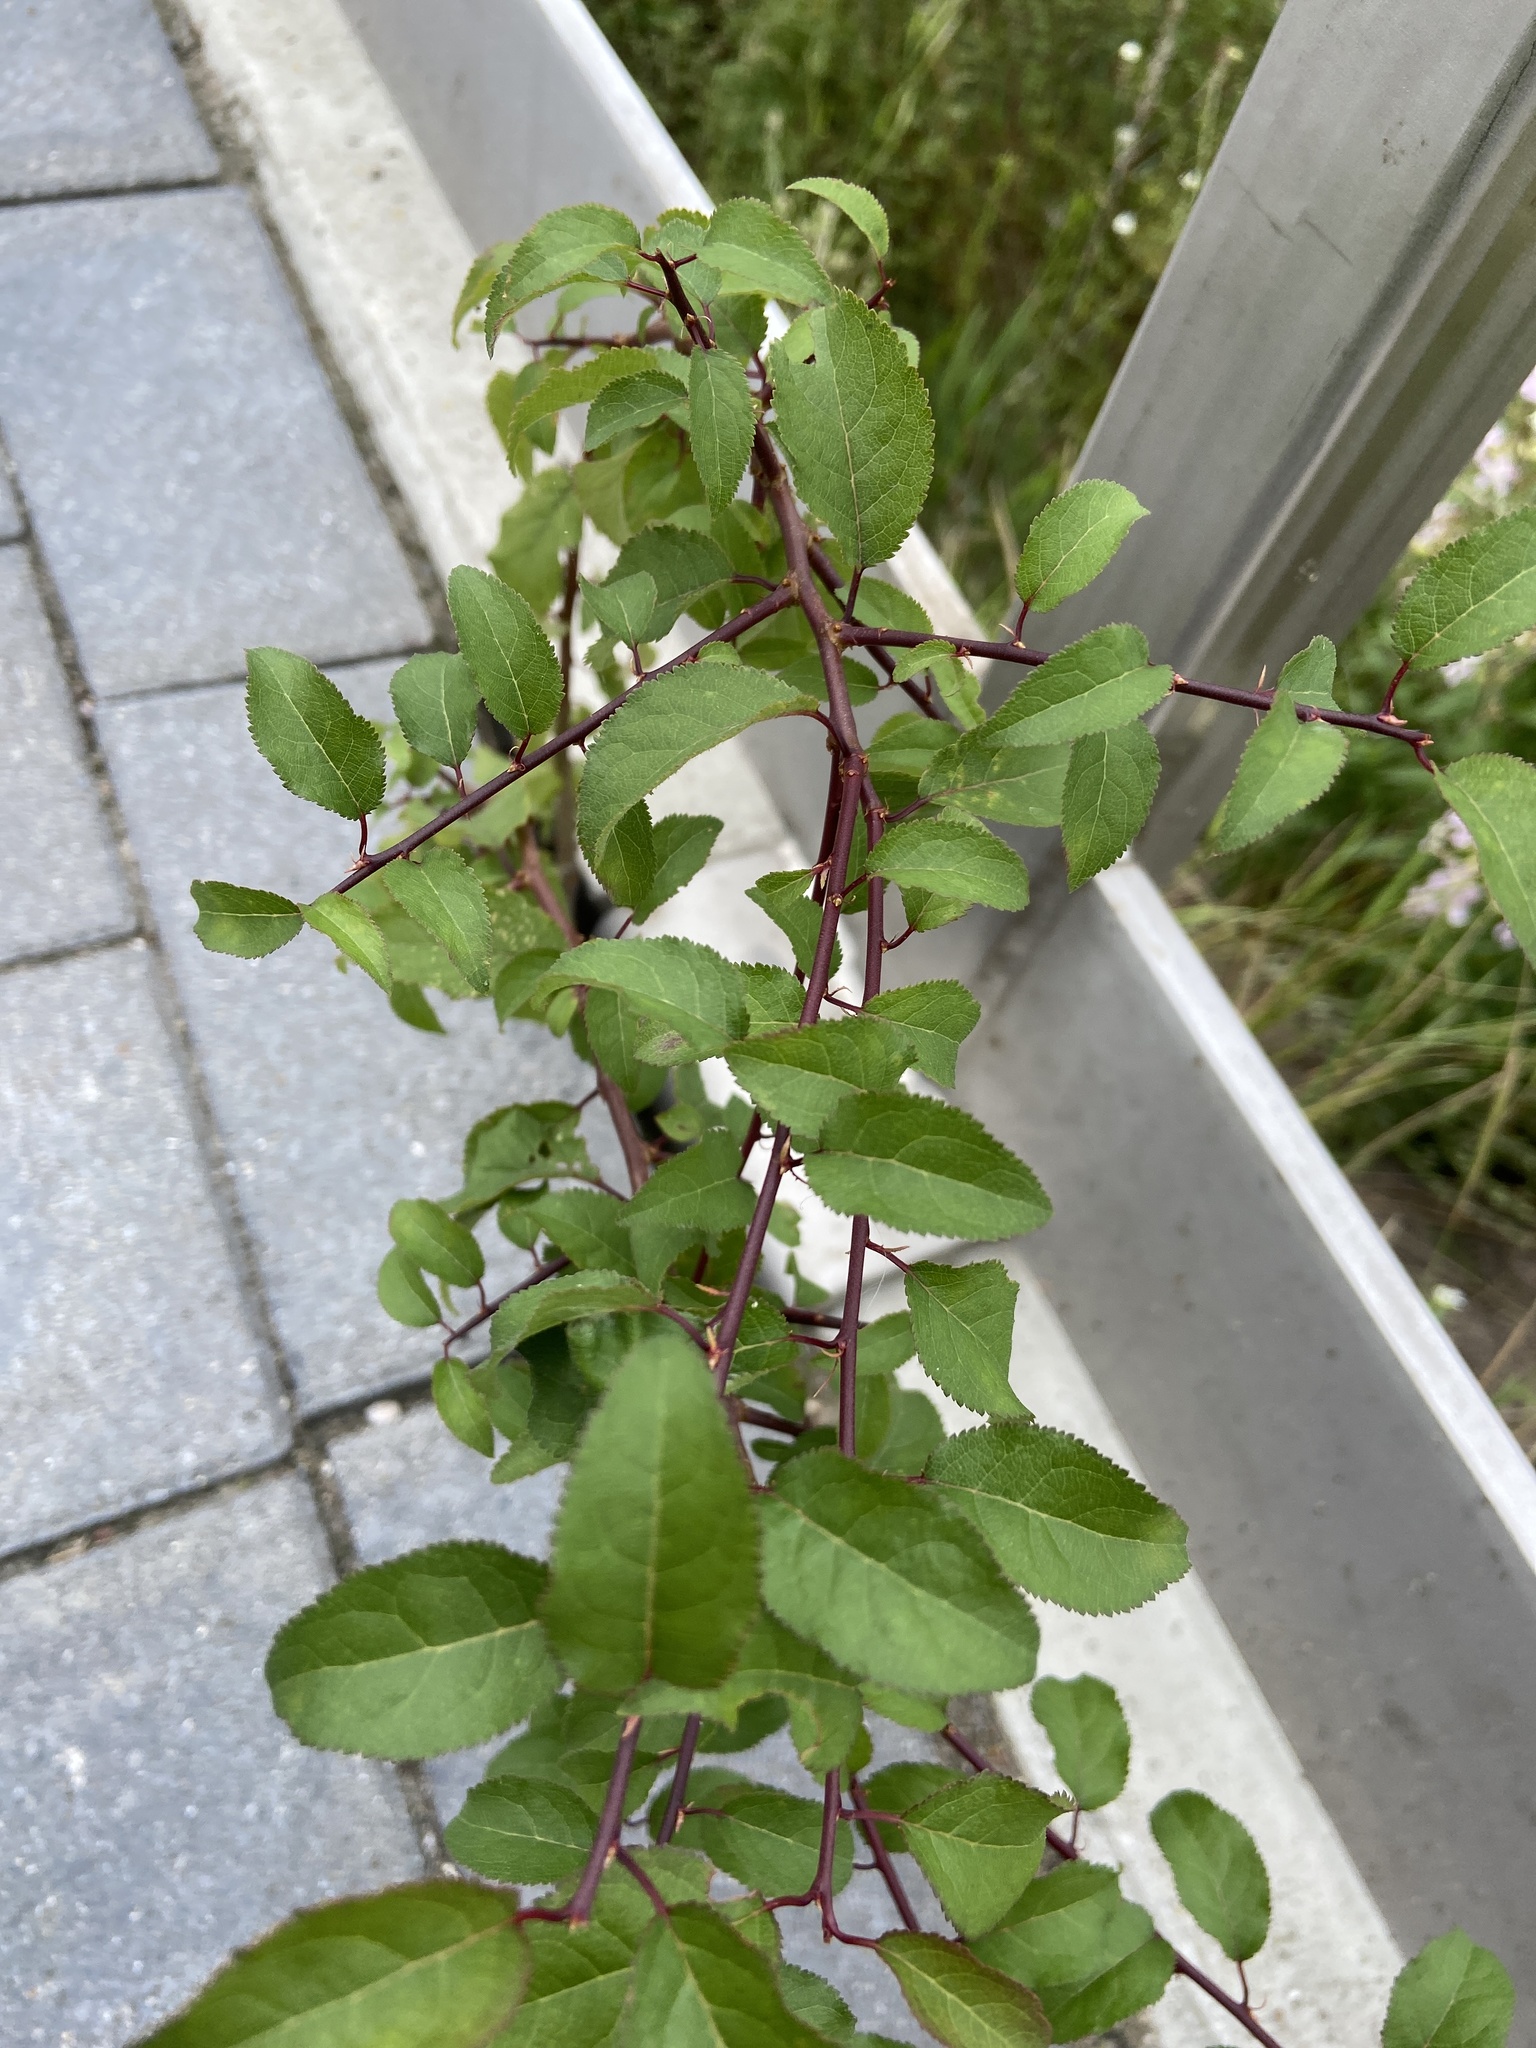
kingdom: Plantae
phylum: Tracheophyta
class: Magnoliopsida
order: Rosales
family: Rosaceae
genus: Prunus
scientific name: Prunus cerasifera
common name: Cherry plum
